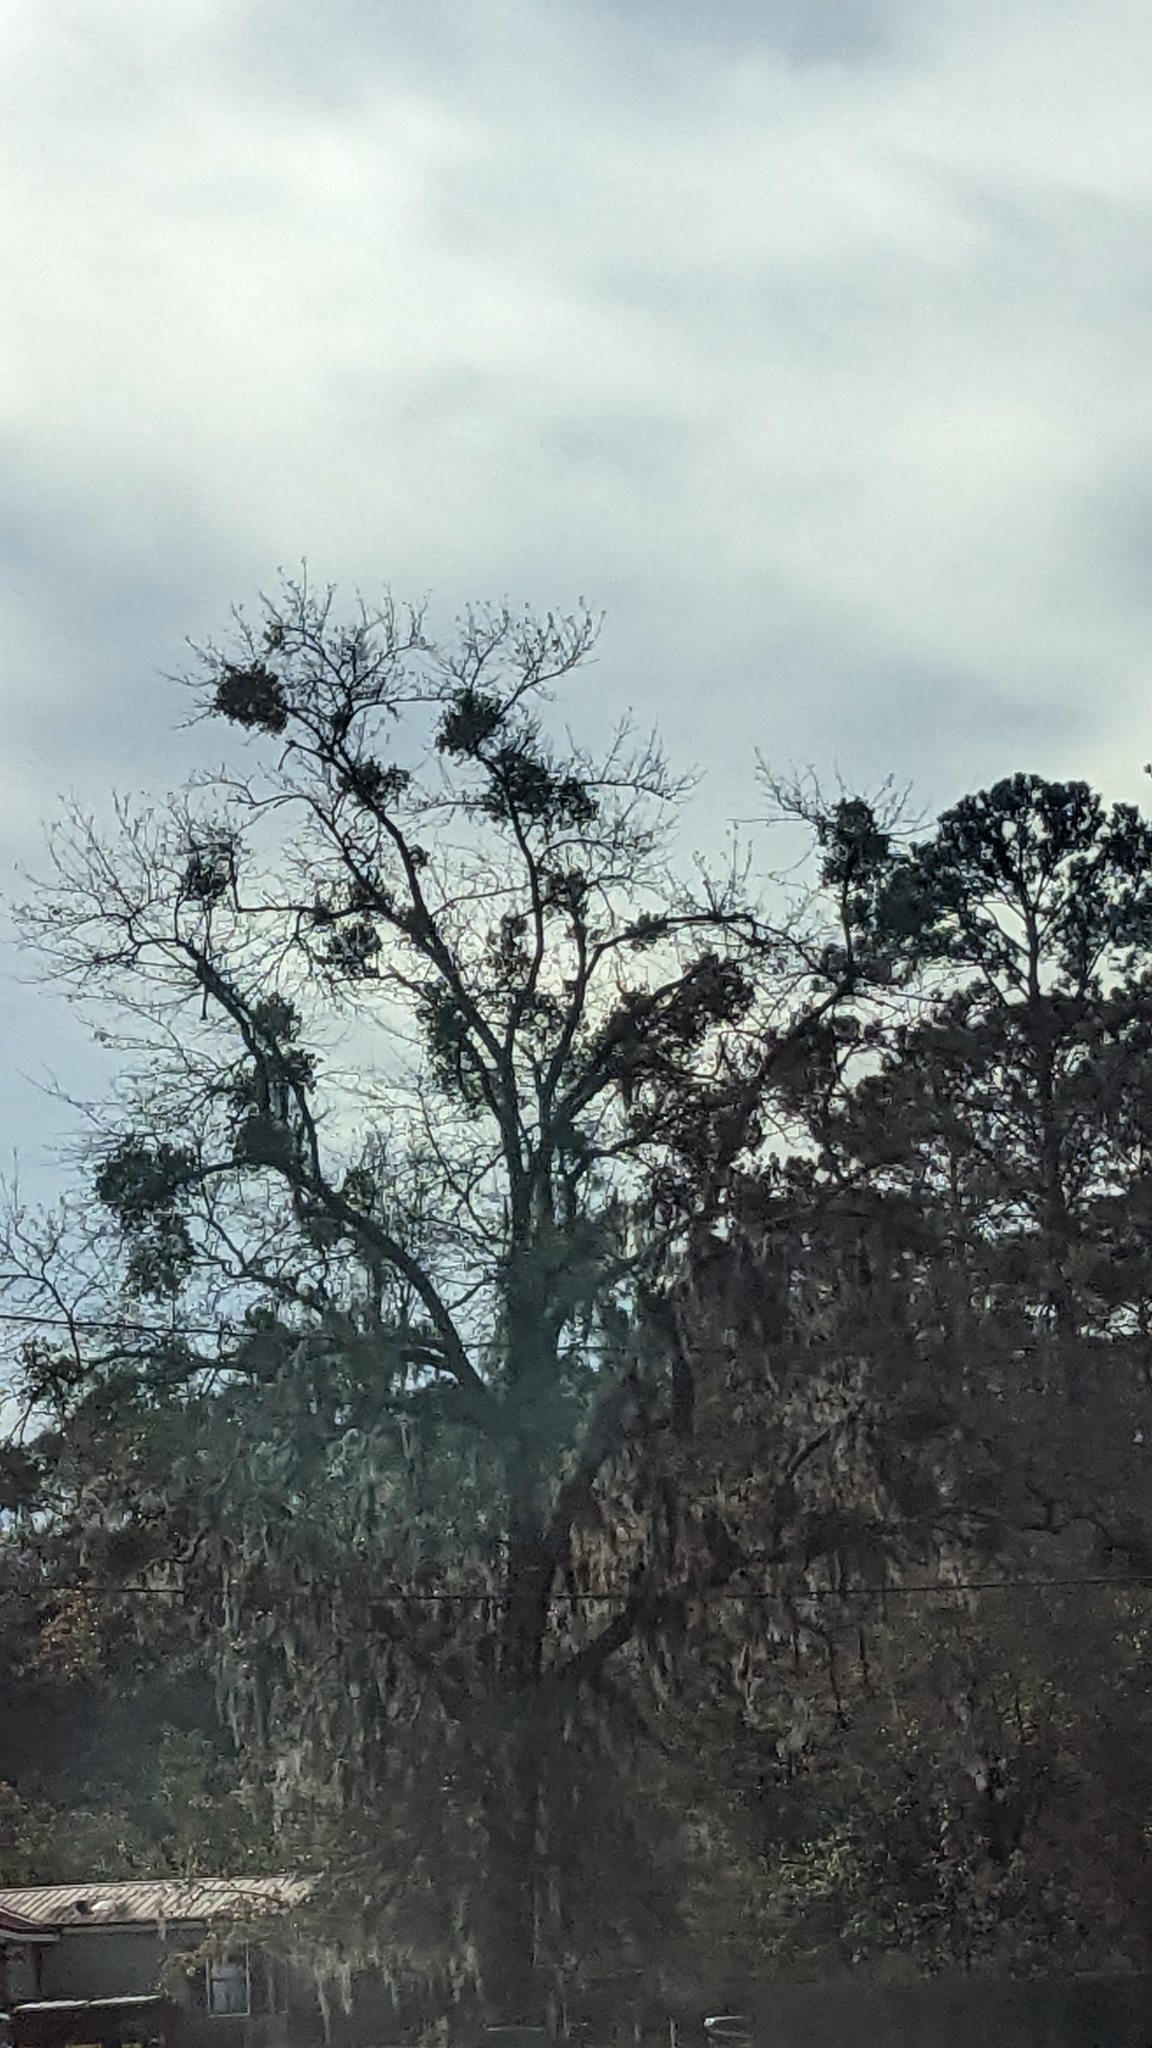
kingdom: Plantae
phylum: Tracheophyta
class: Magnoliopsida
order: Santalales
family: Viscaceae
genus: Phoradendron
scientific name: Phoradendron leucarpum
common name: Pacific mistletoe
